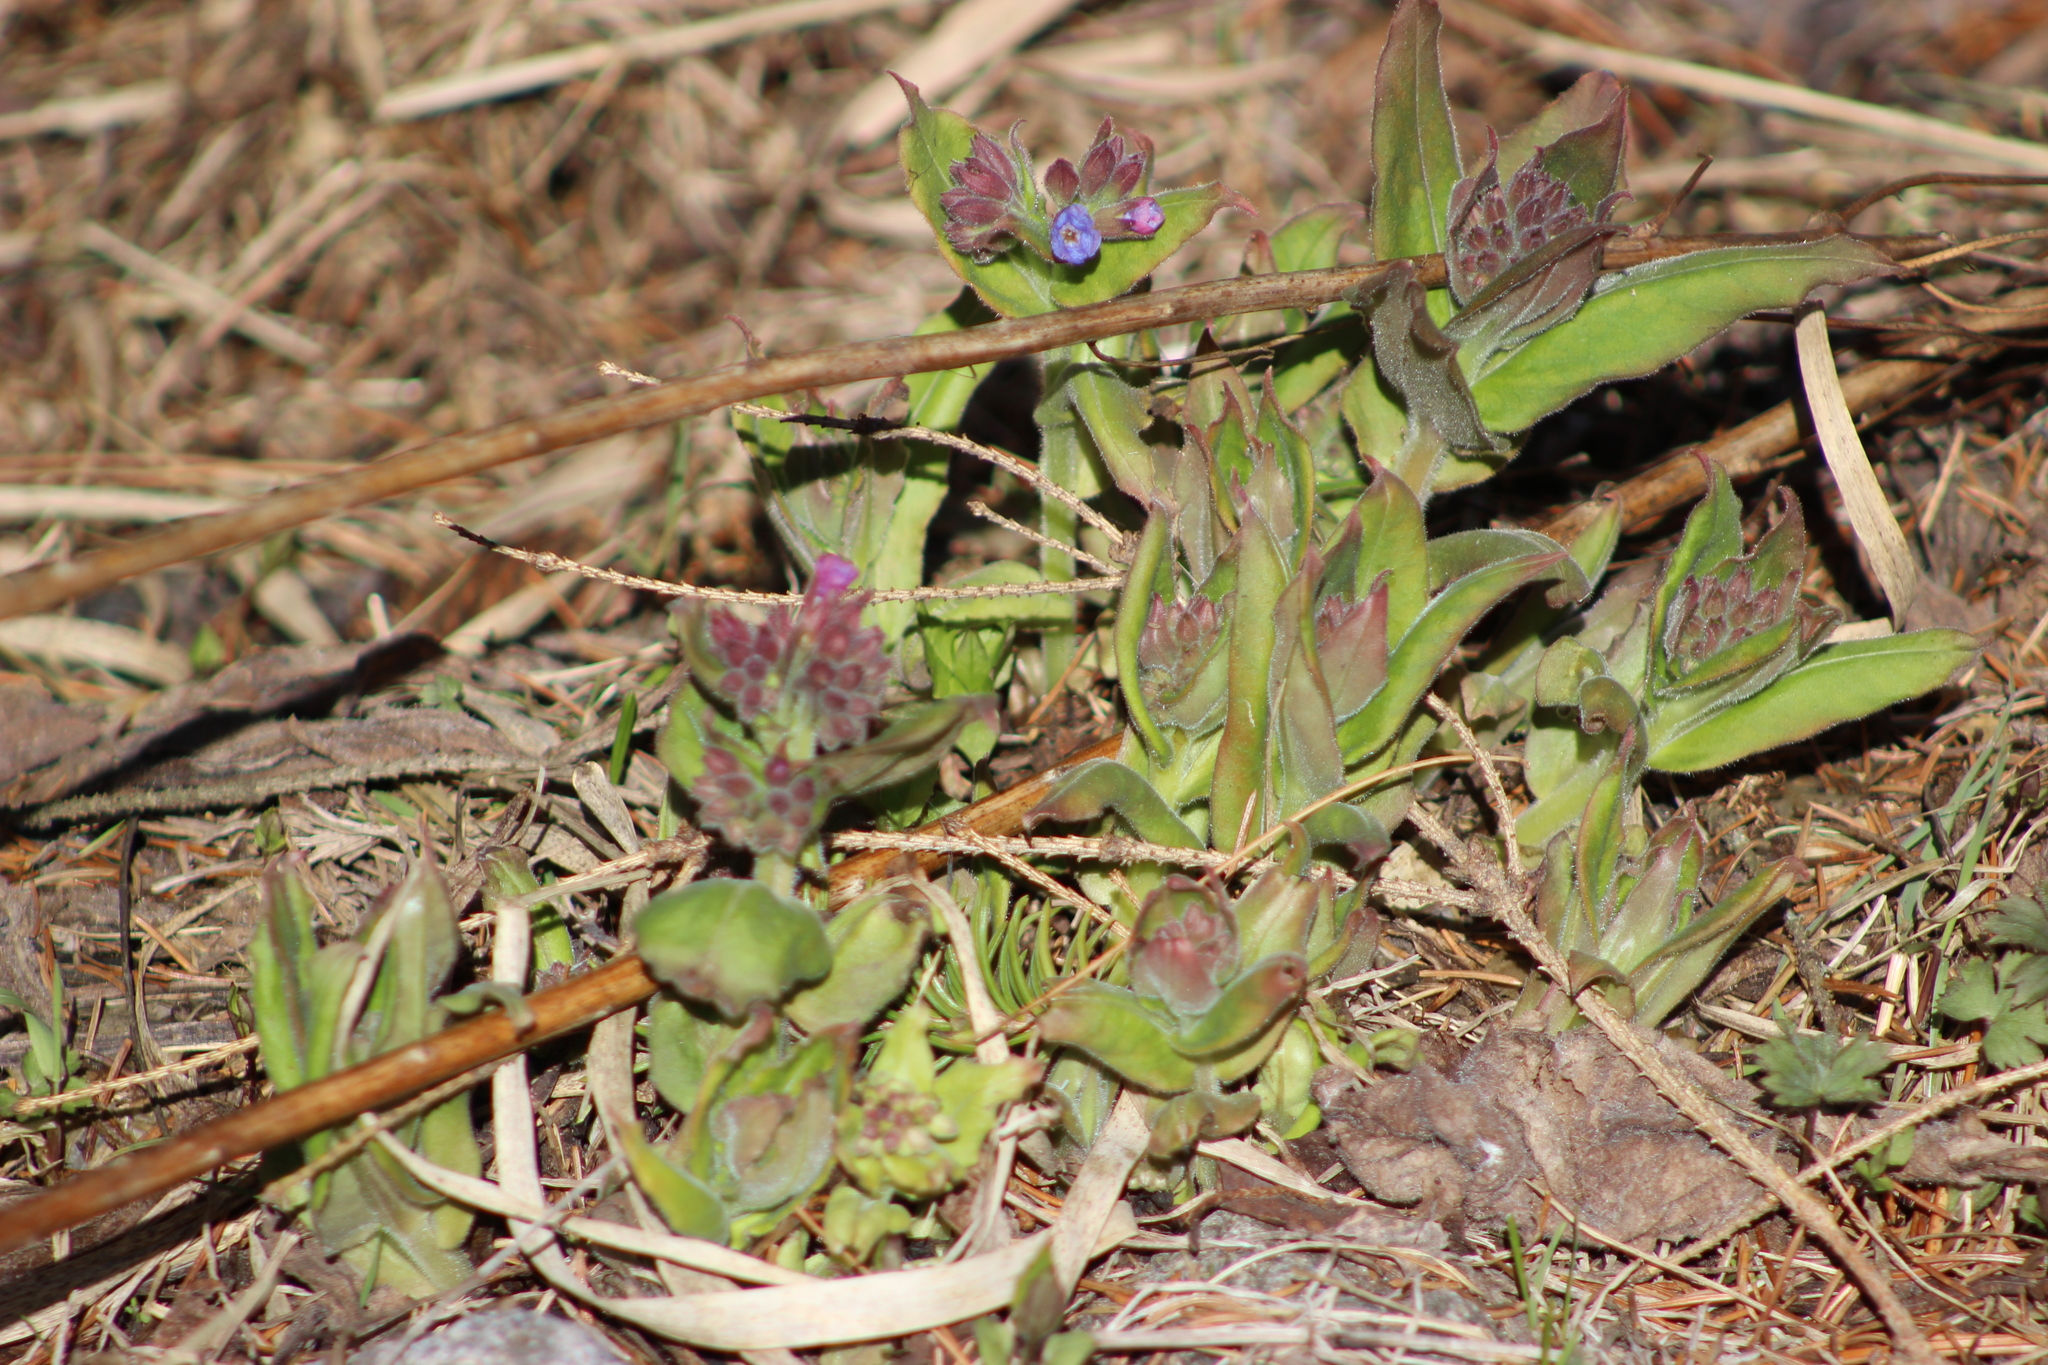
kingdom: Plantae
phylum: Tracheophyta
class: Magnoliopsida
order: Boraginales
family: Boraginaceae
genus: Pulmonaria
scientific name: Pulmonaria mollis
